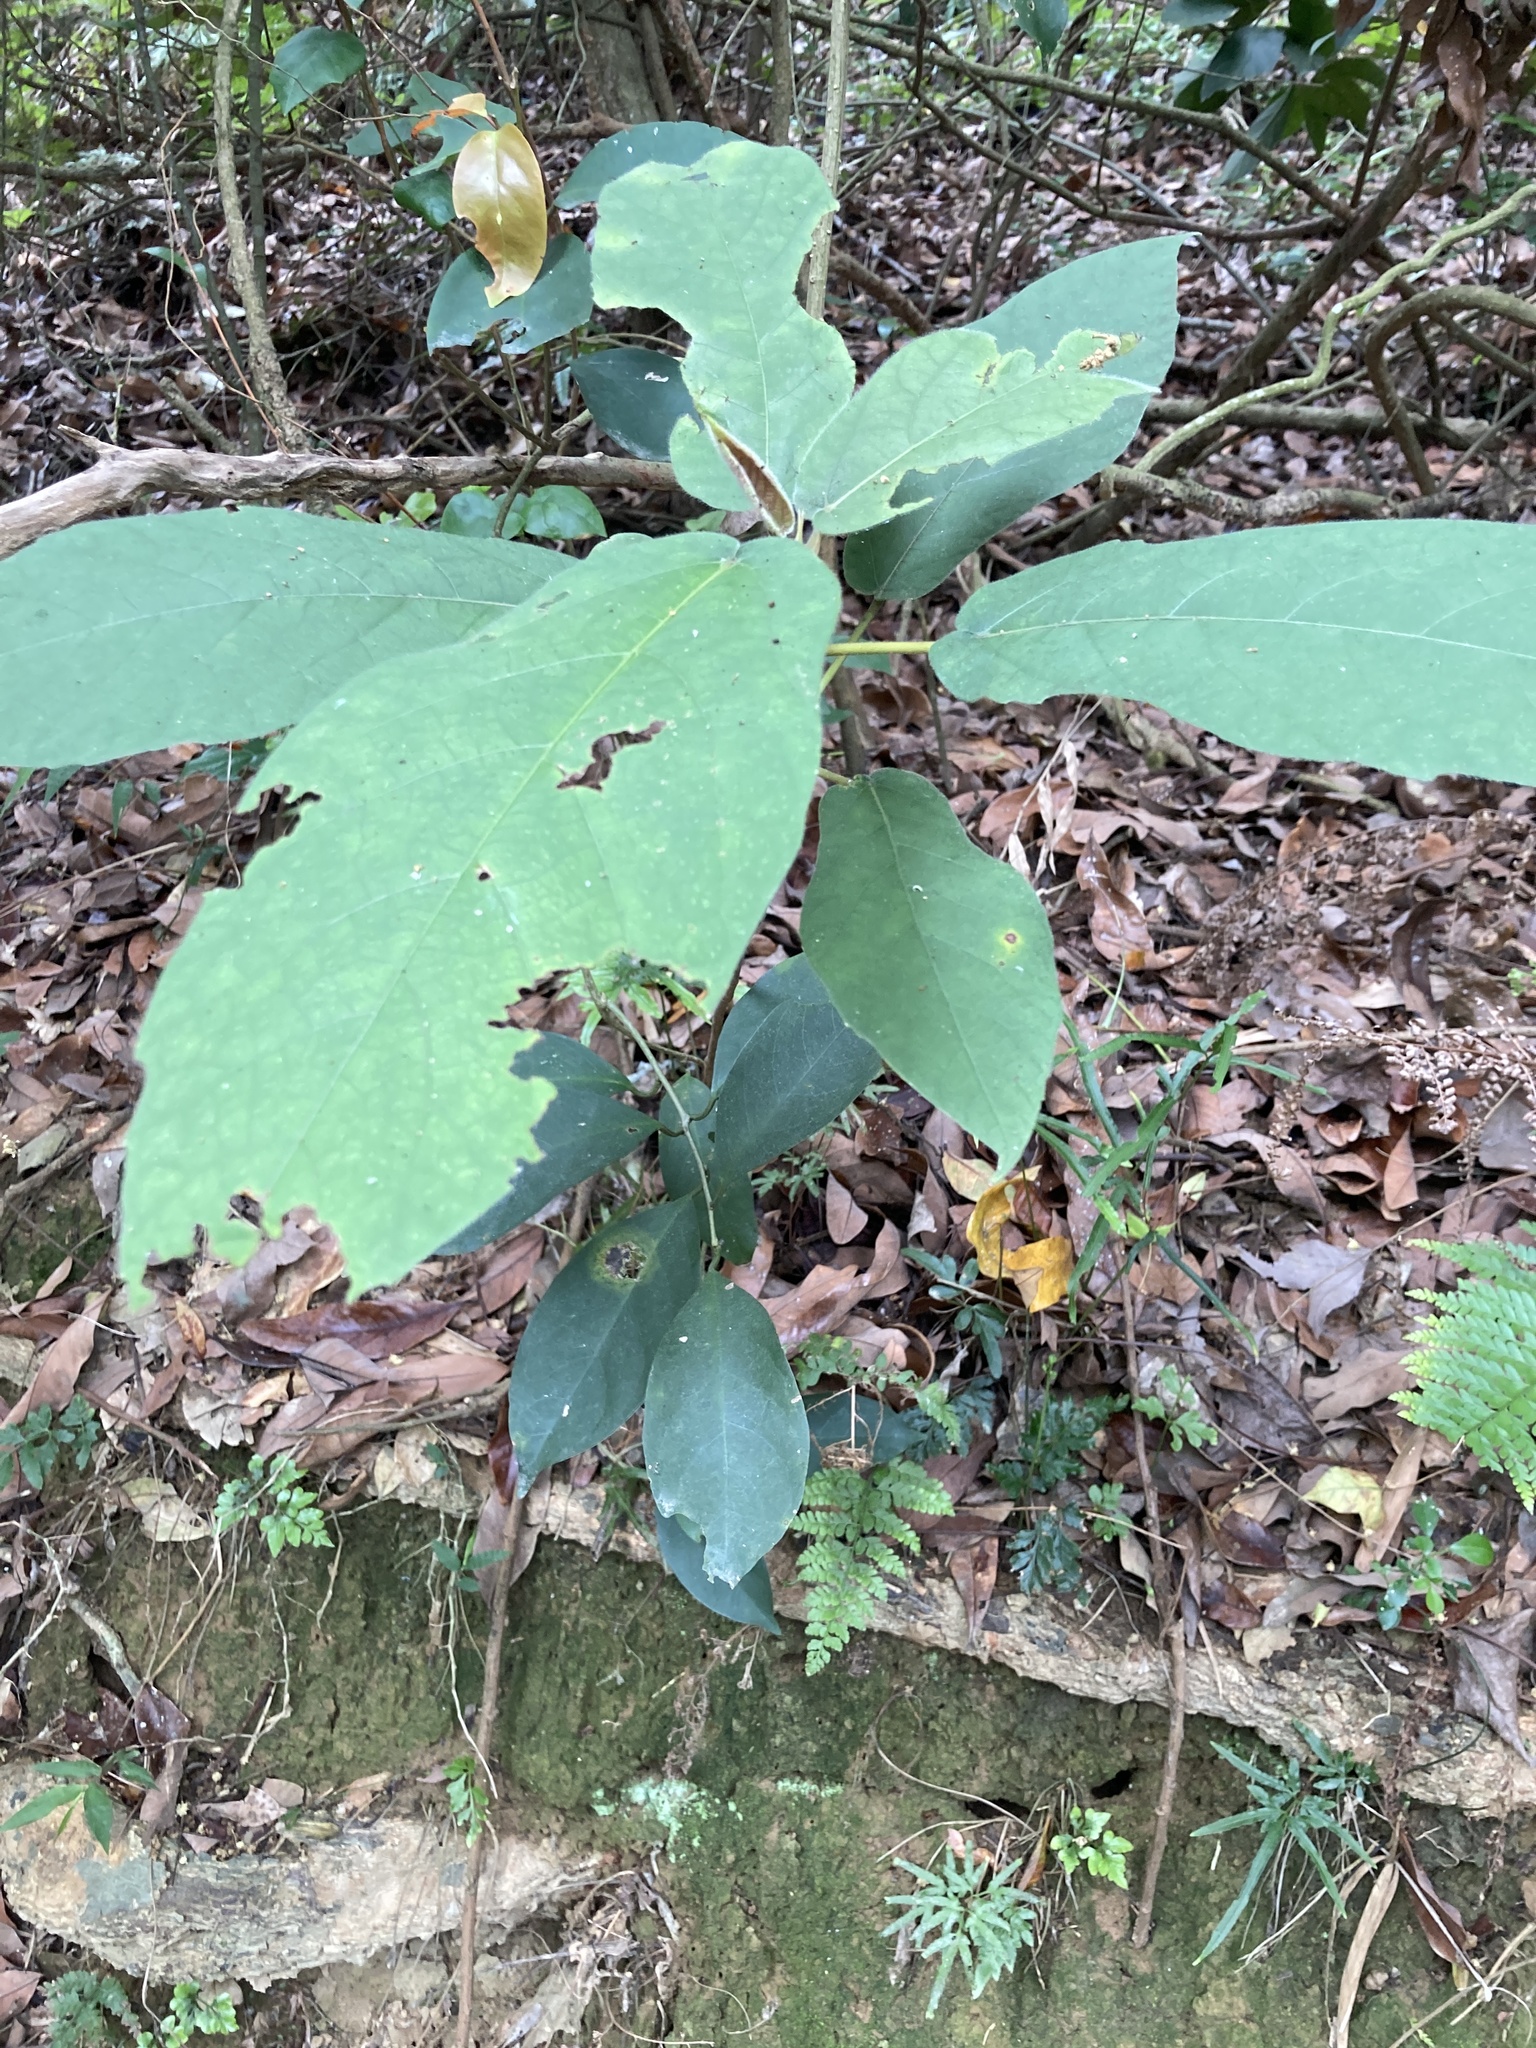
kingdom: Plantae
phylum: Tracheophyta
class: Magnoliopsida
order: Rosales
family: Moraceae
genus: Ficus
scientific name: Ficus erecta
